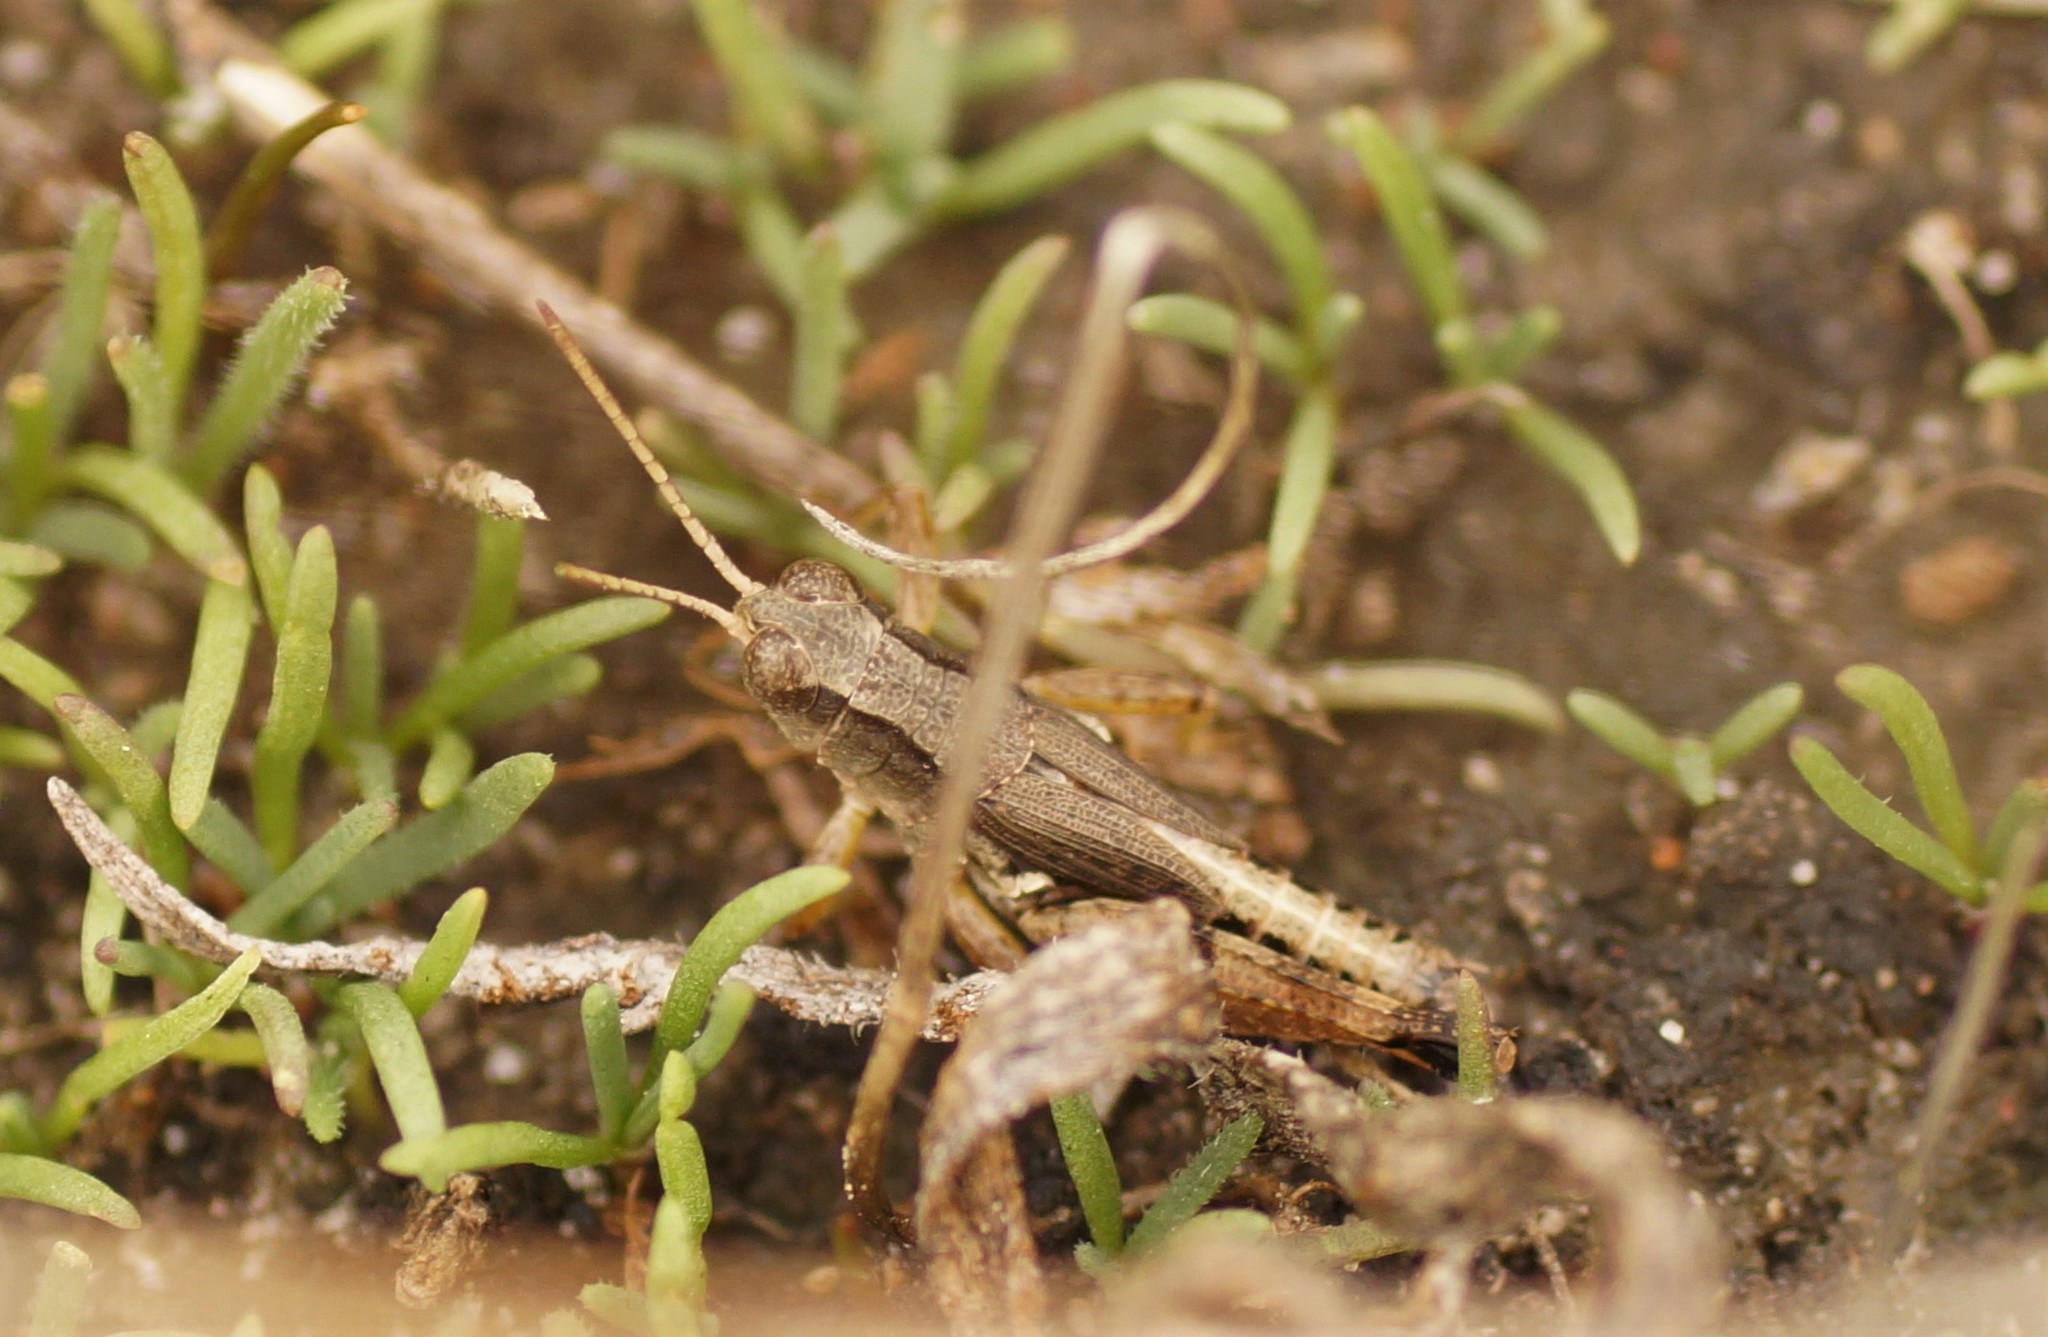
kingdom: Animalia
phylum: Arthropoda
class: Insecta
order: Orthoptera
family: Acrididae
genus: Phaulacridium
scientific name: Phaulacridium vittatum
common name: Wingless grasshopper
